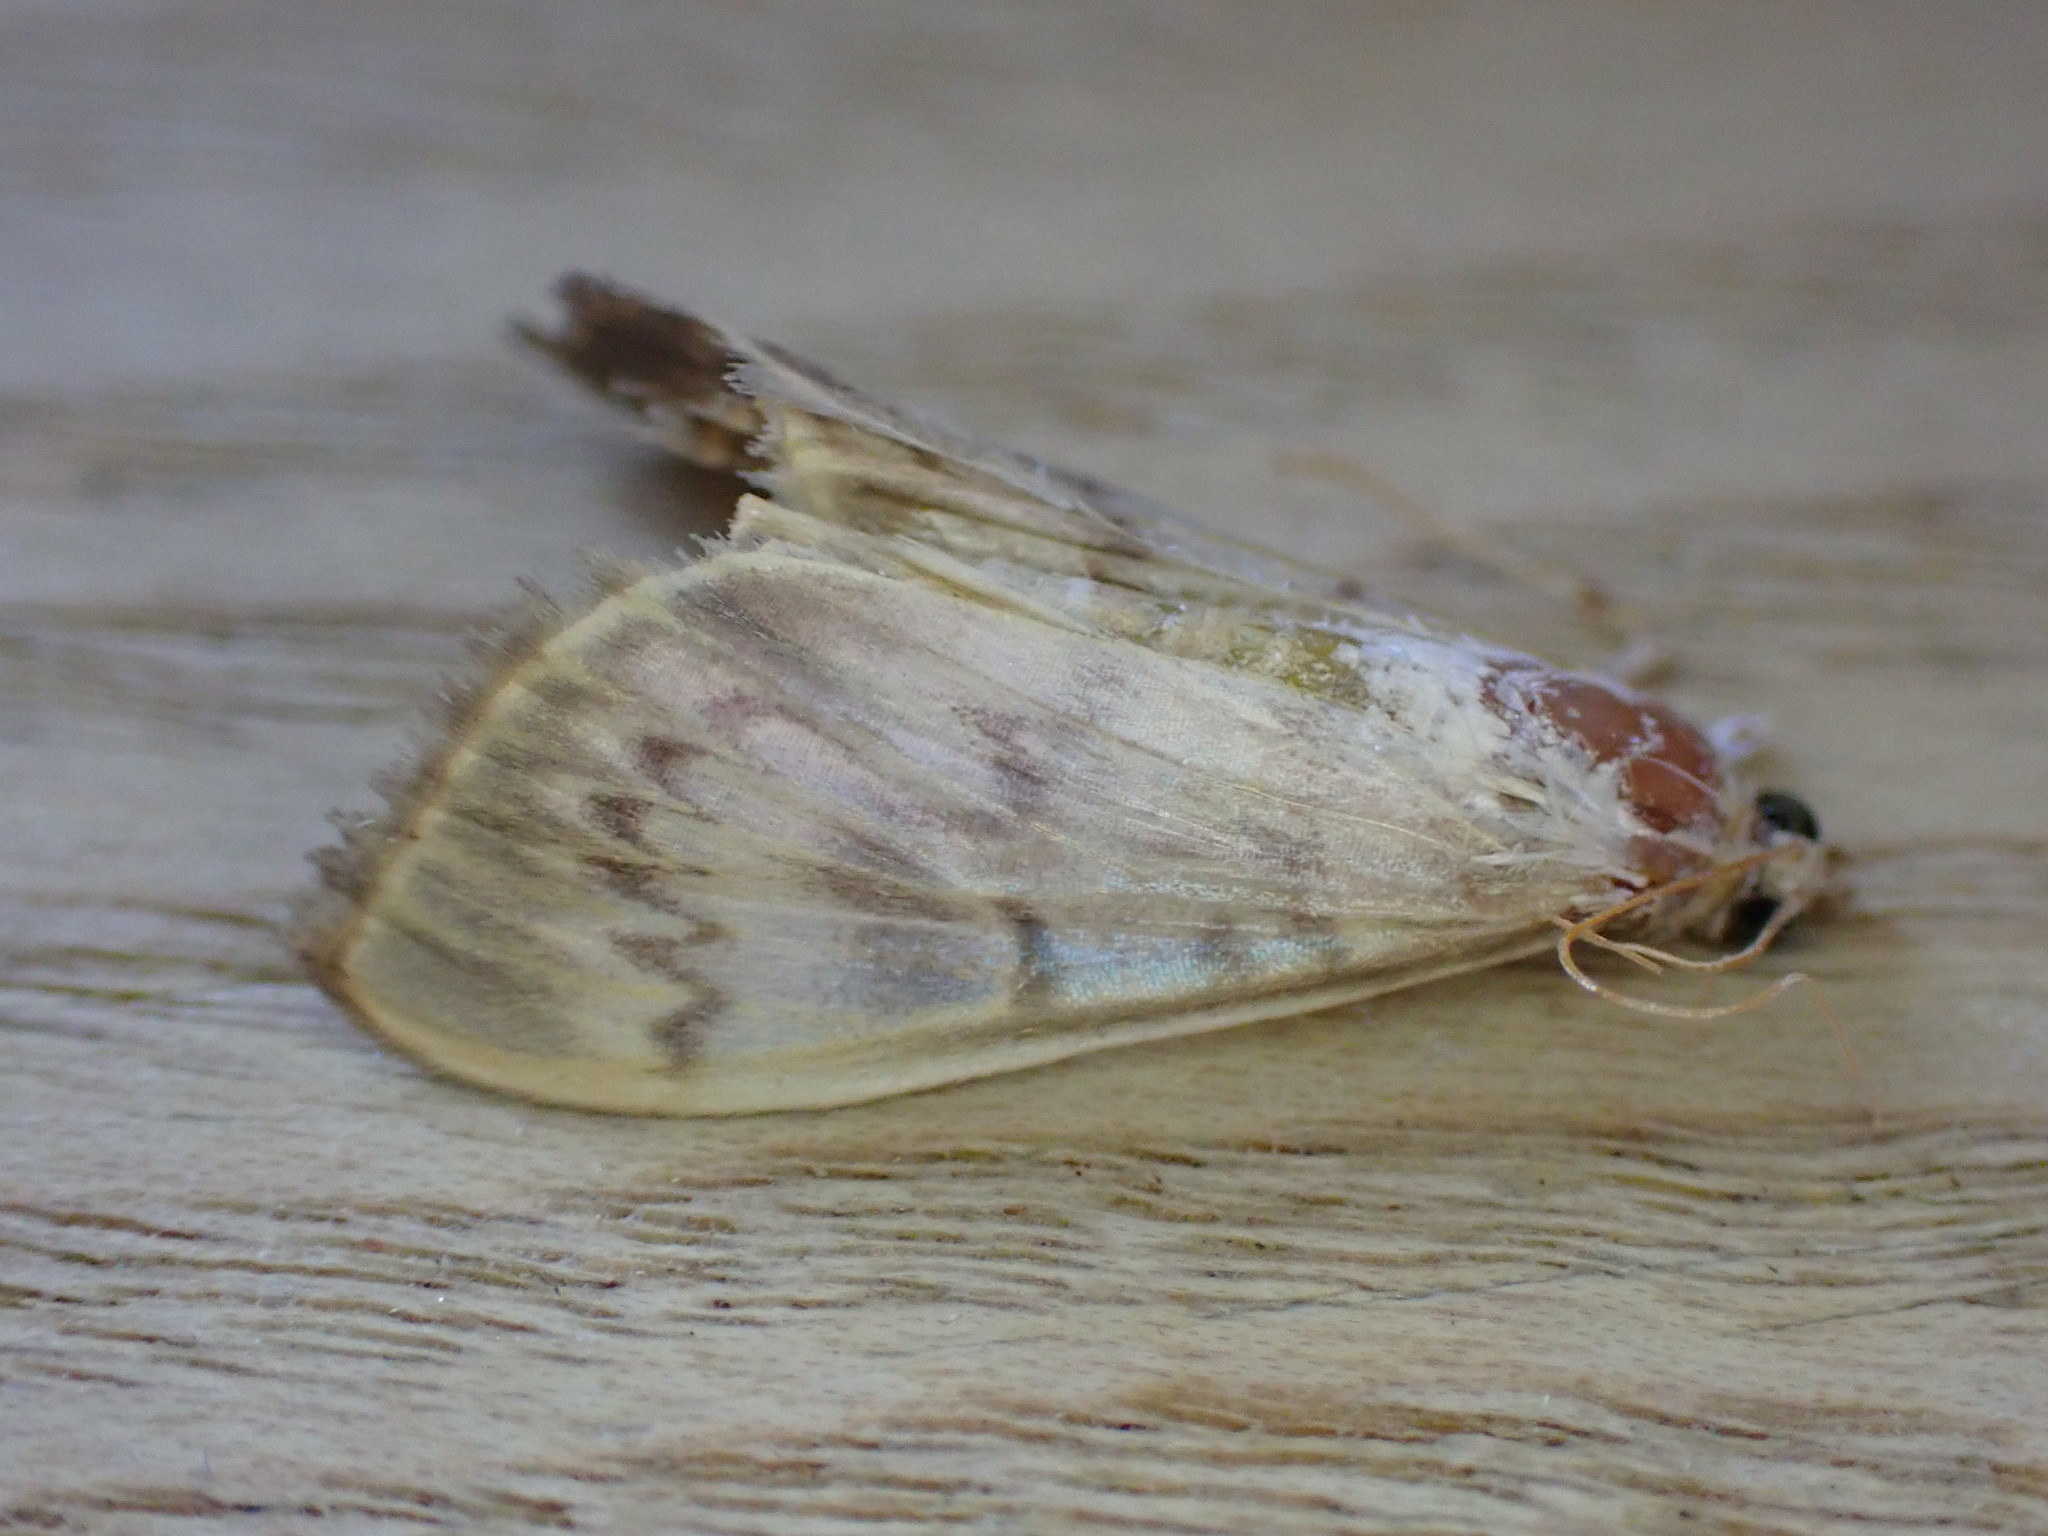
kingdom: Animalia
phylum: Arthropoda
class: Insecta
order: Lepidoptera
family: Crambidae
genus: Patania
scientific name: Patania ruralis
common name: Mother of pearl
